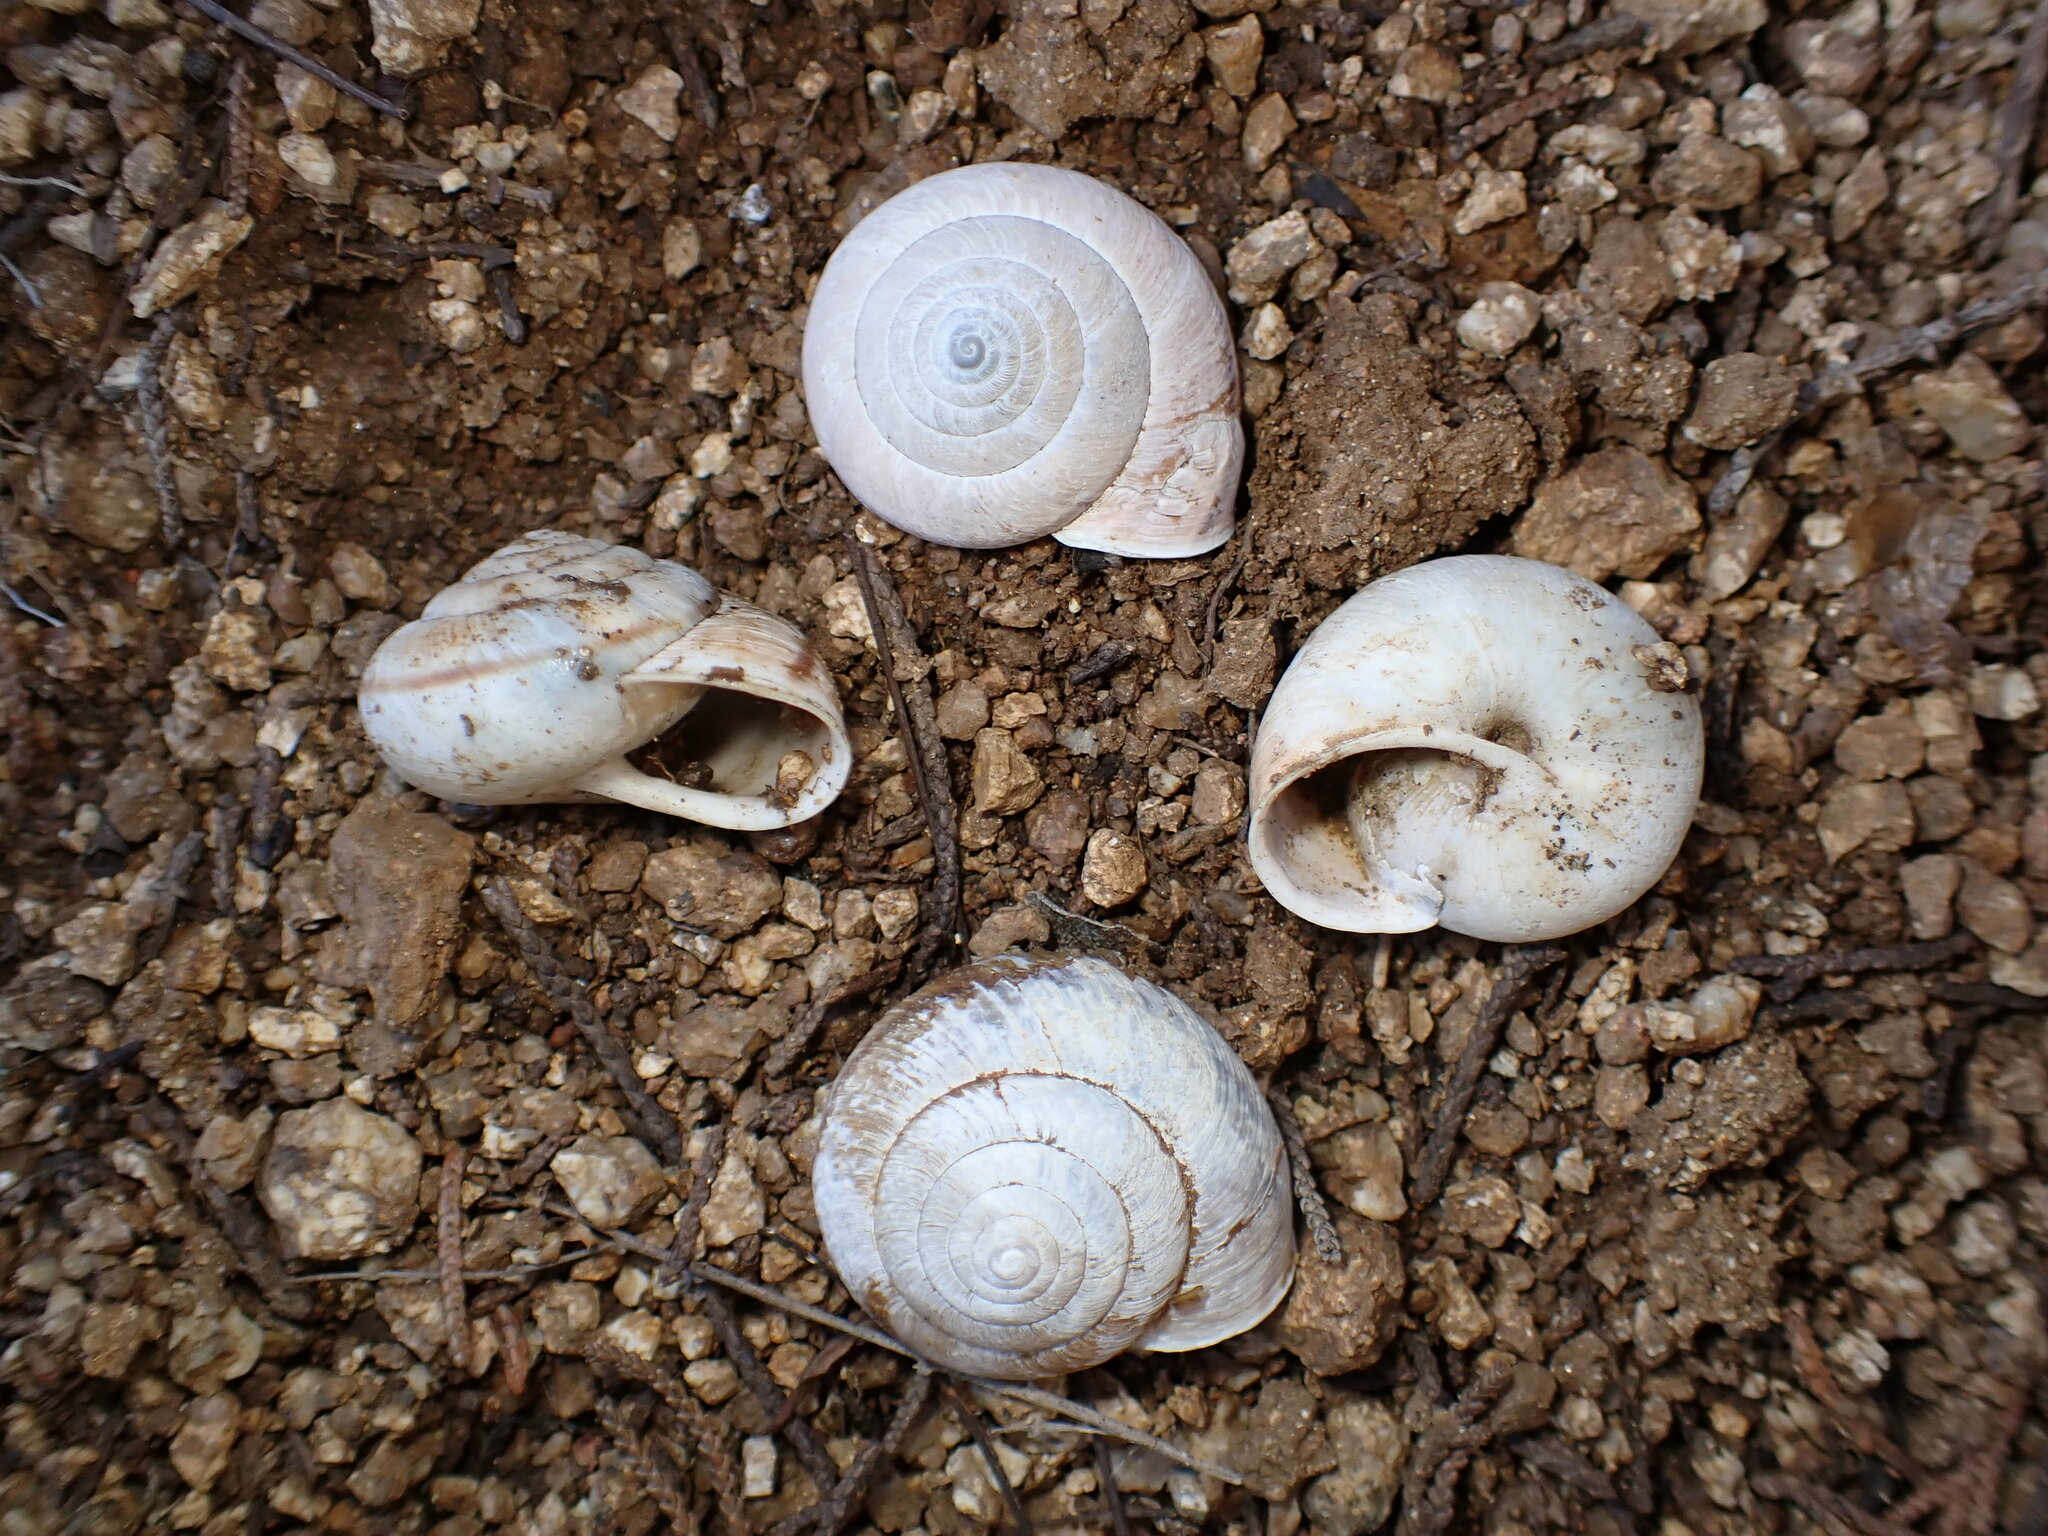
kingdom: Animalia
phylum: Mollusca
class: Gastropoda
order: Stylommatophora
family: Xanthonychidae
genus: Helminthoglypta
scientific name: Helminthoglypta arrosa
